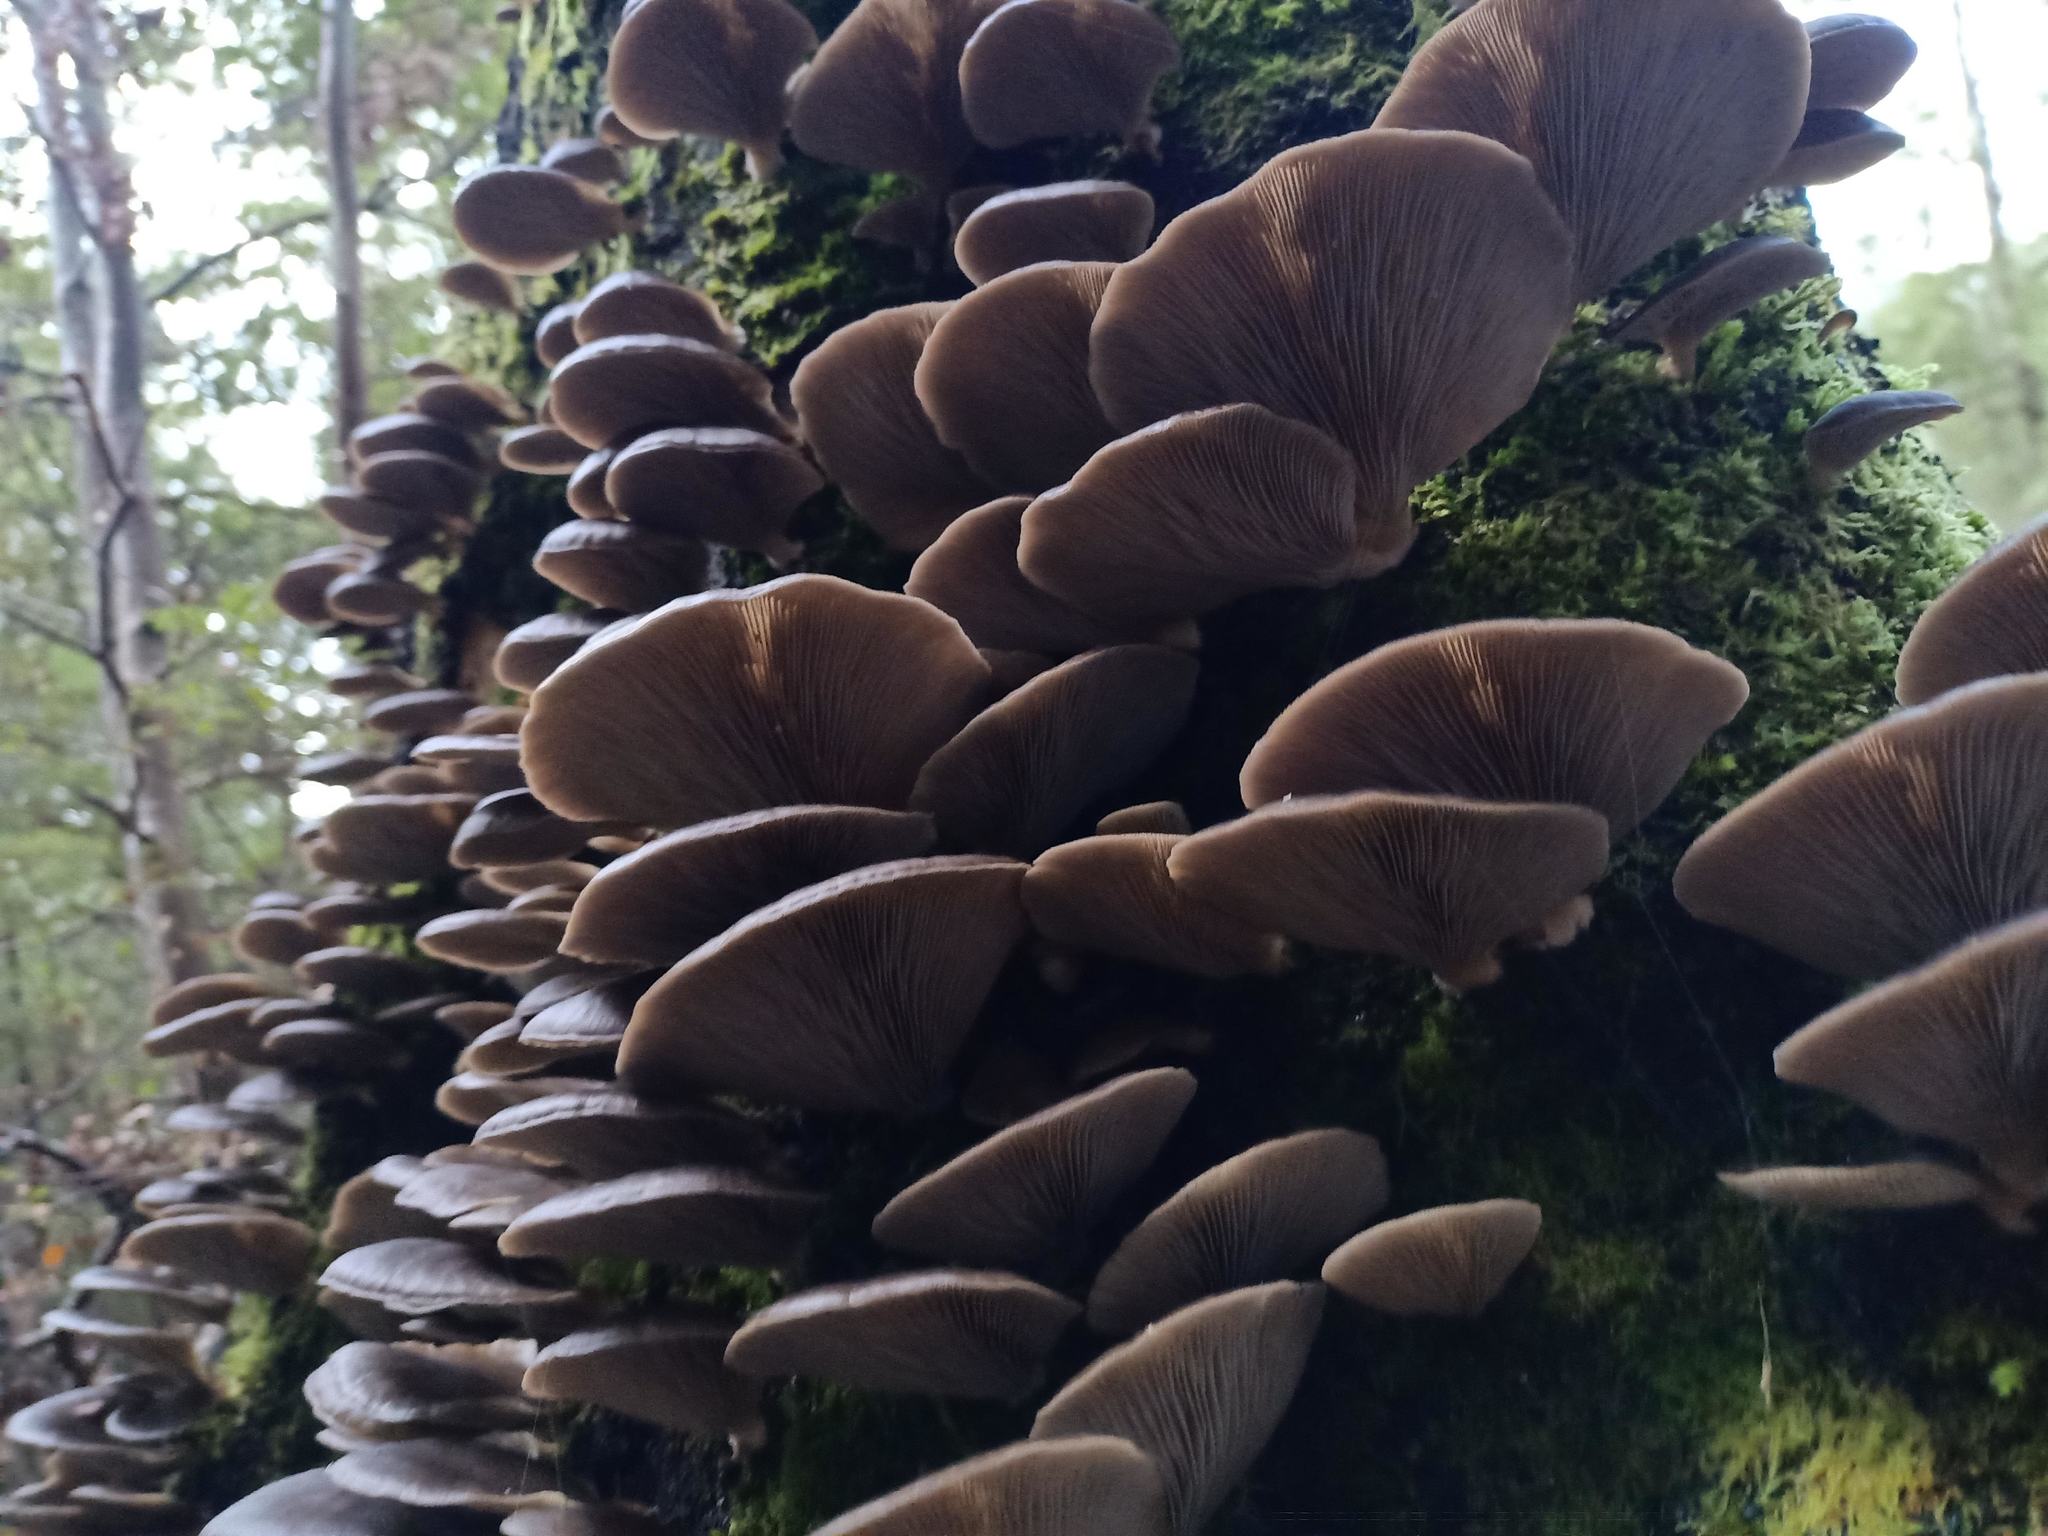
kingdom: Fungi
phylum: Basidiomycota
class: Agaricomycetes
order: Agaricales
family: Pleurotaceae
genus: Pleurotus
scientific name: Pleurotus purpureo-olivaceus
